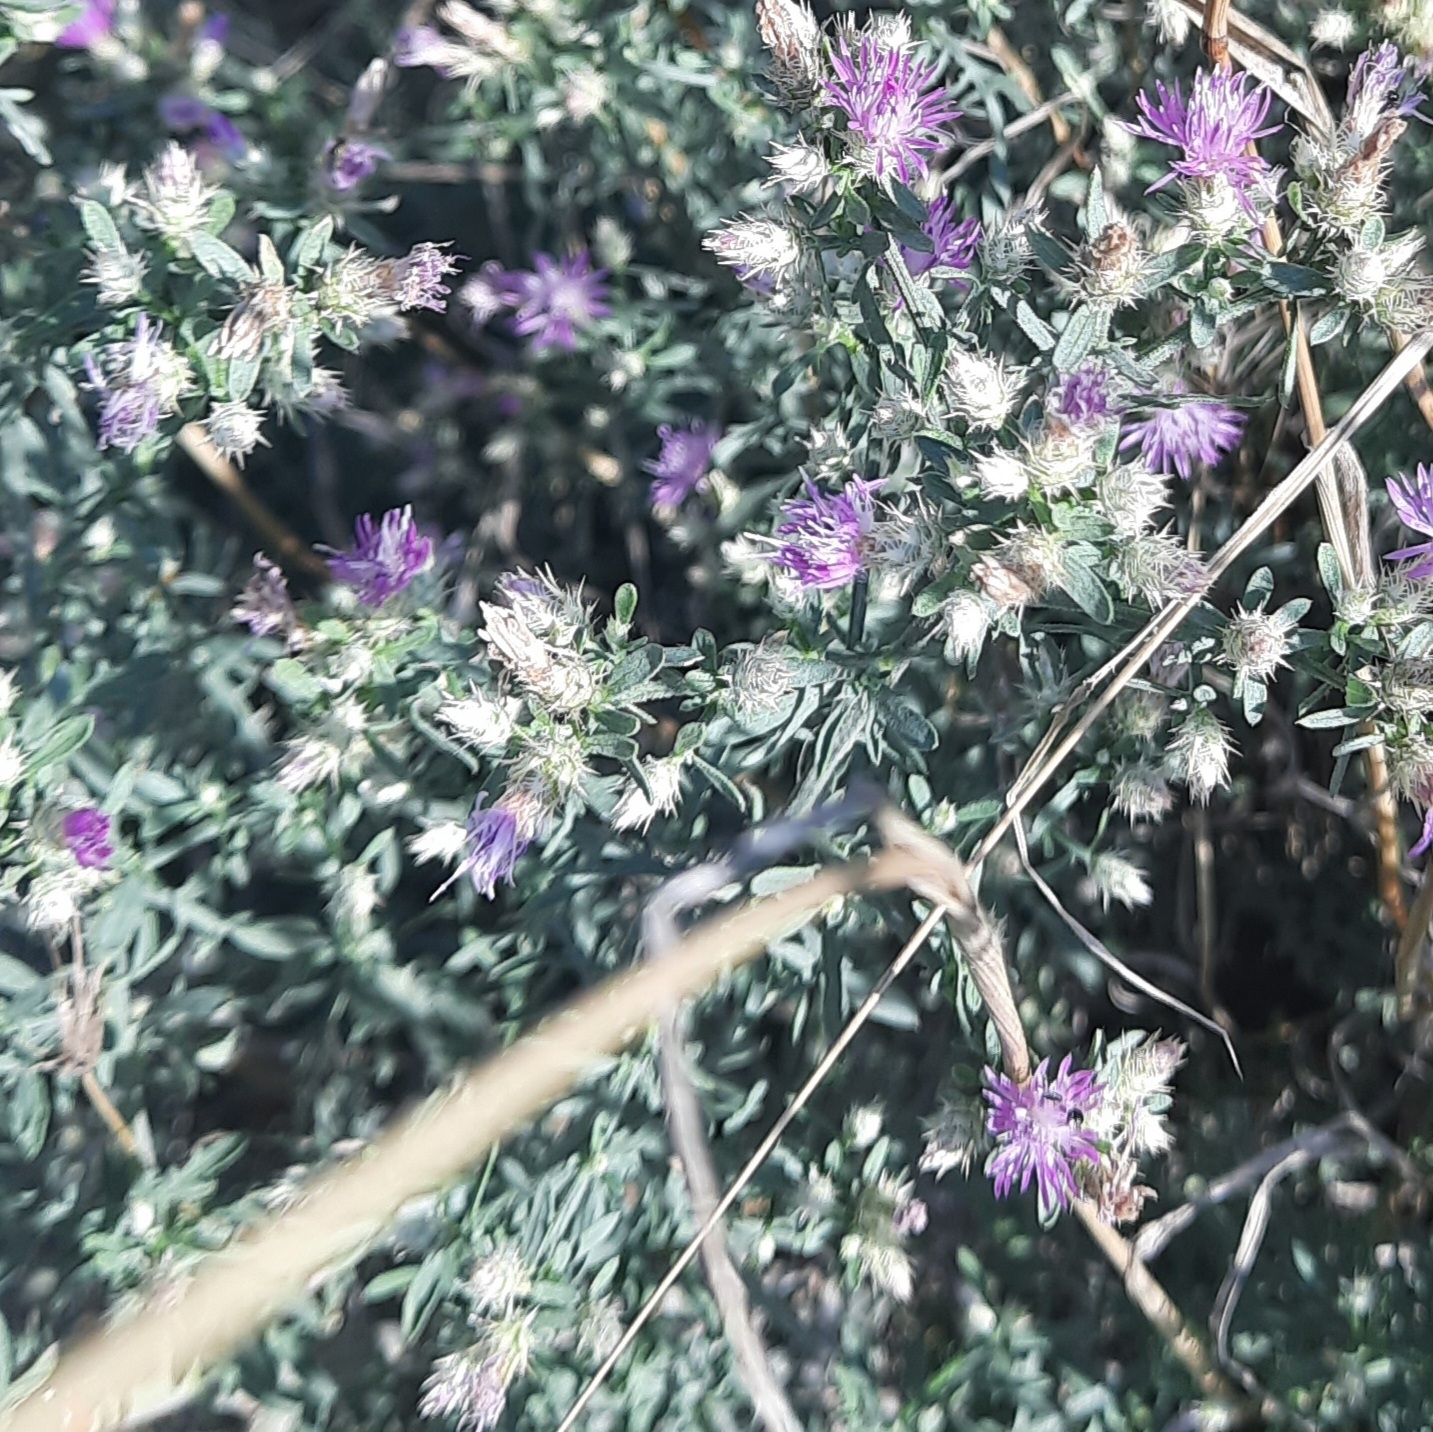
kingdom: Plantae
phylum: Tracheophyta
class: Magnoliopsida
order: Asterales
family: Asteraceae
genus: Centaurea
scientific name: Centaurea diffusa
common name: Diffuse knapweed
